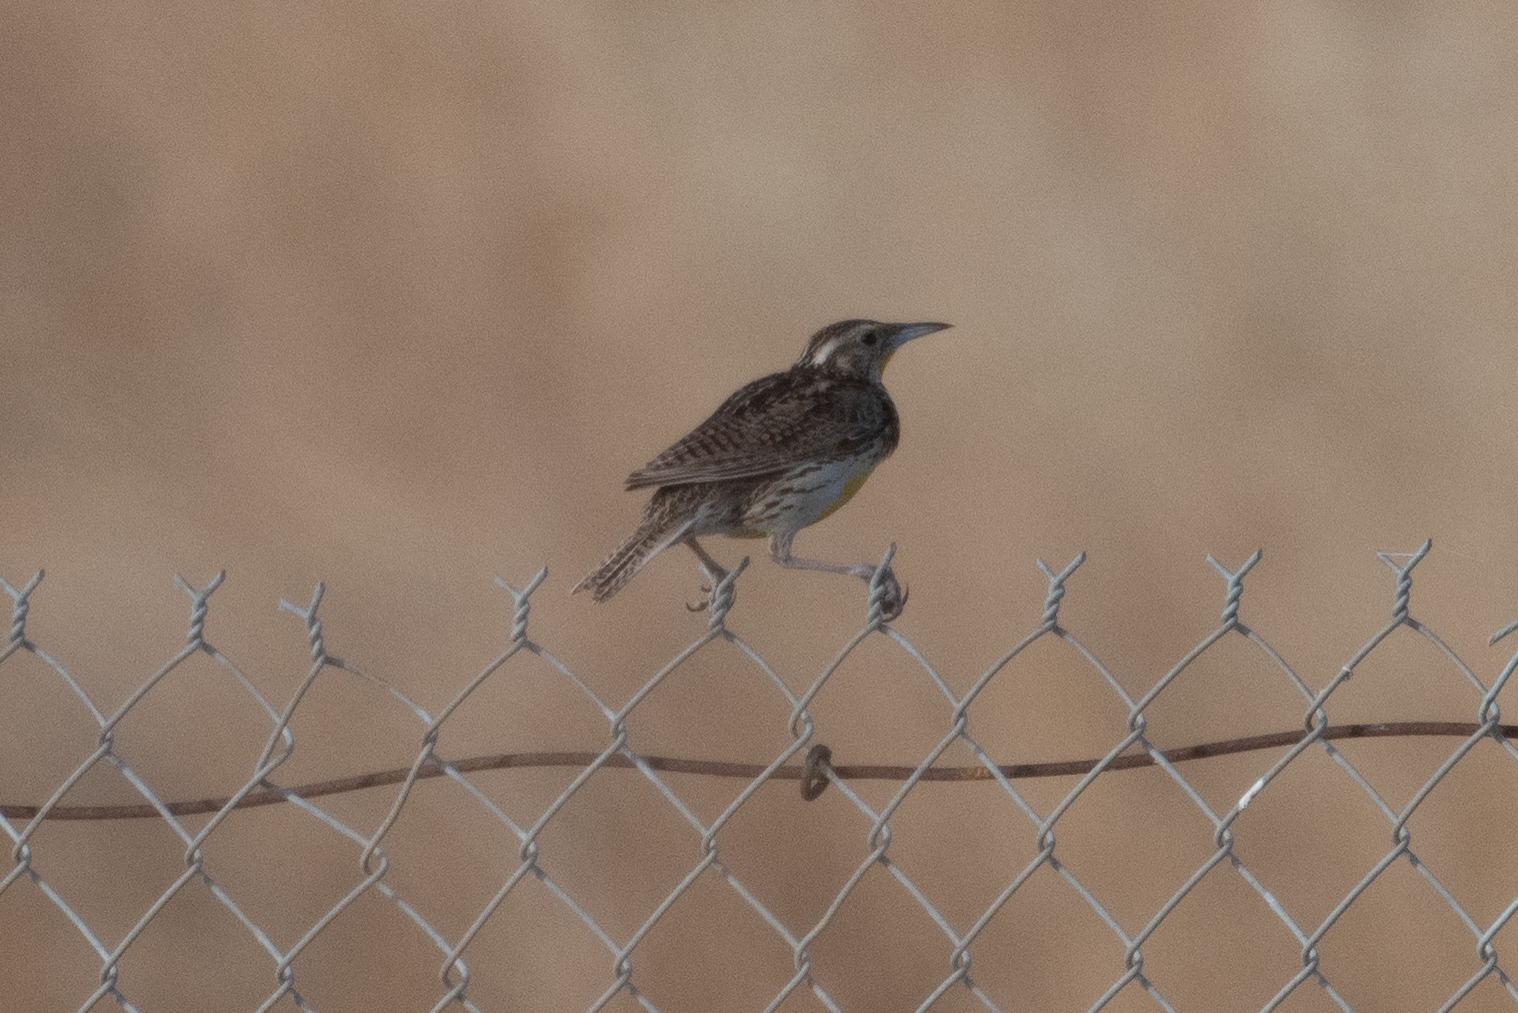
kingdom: Animalia
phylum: Chordata
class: Aves
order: Passeriformes
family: Icteridae
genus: Sturnella
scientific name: Sturnella neglecta
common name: Western meadowlark
